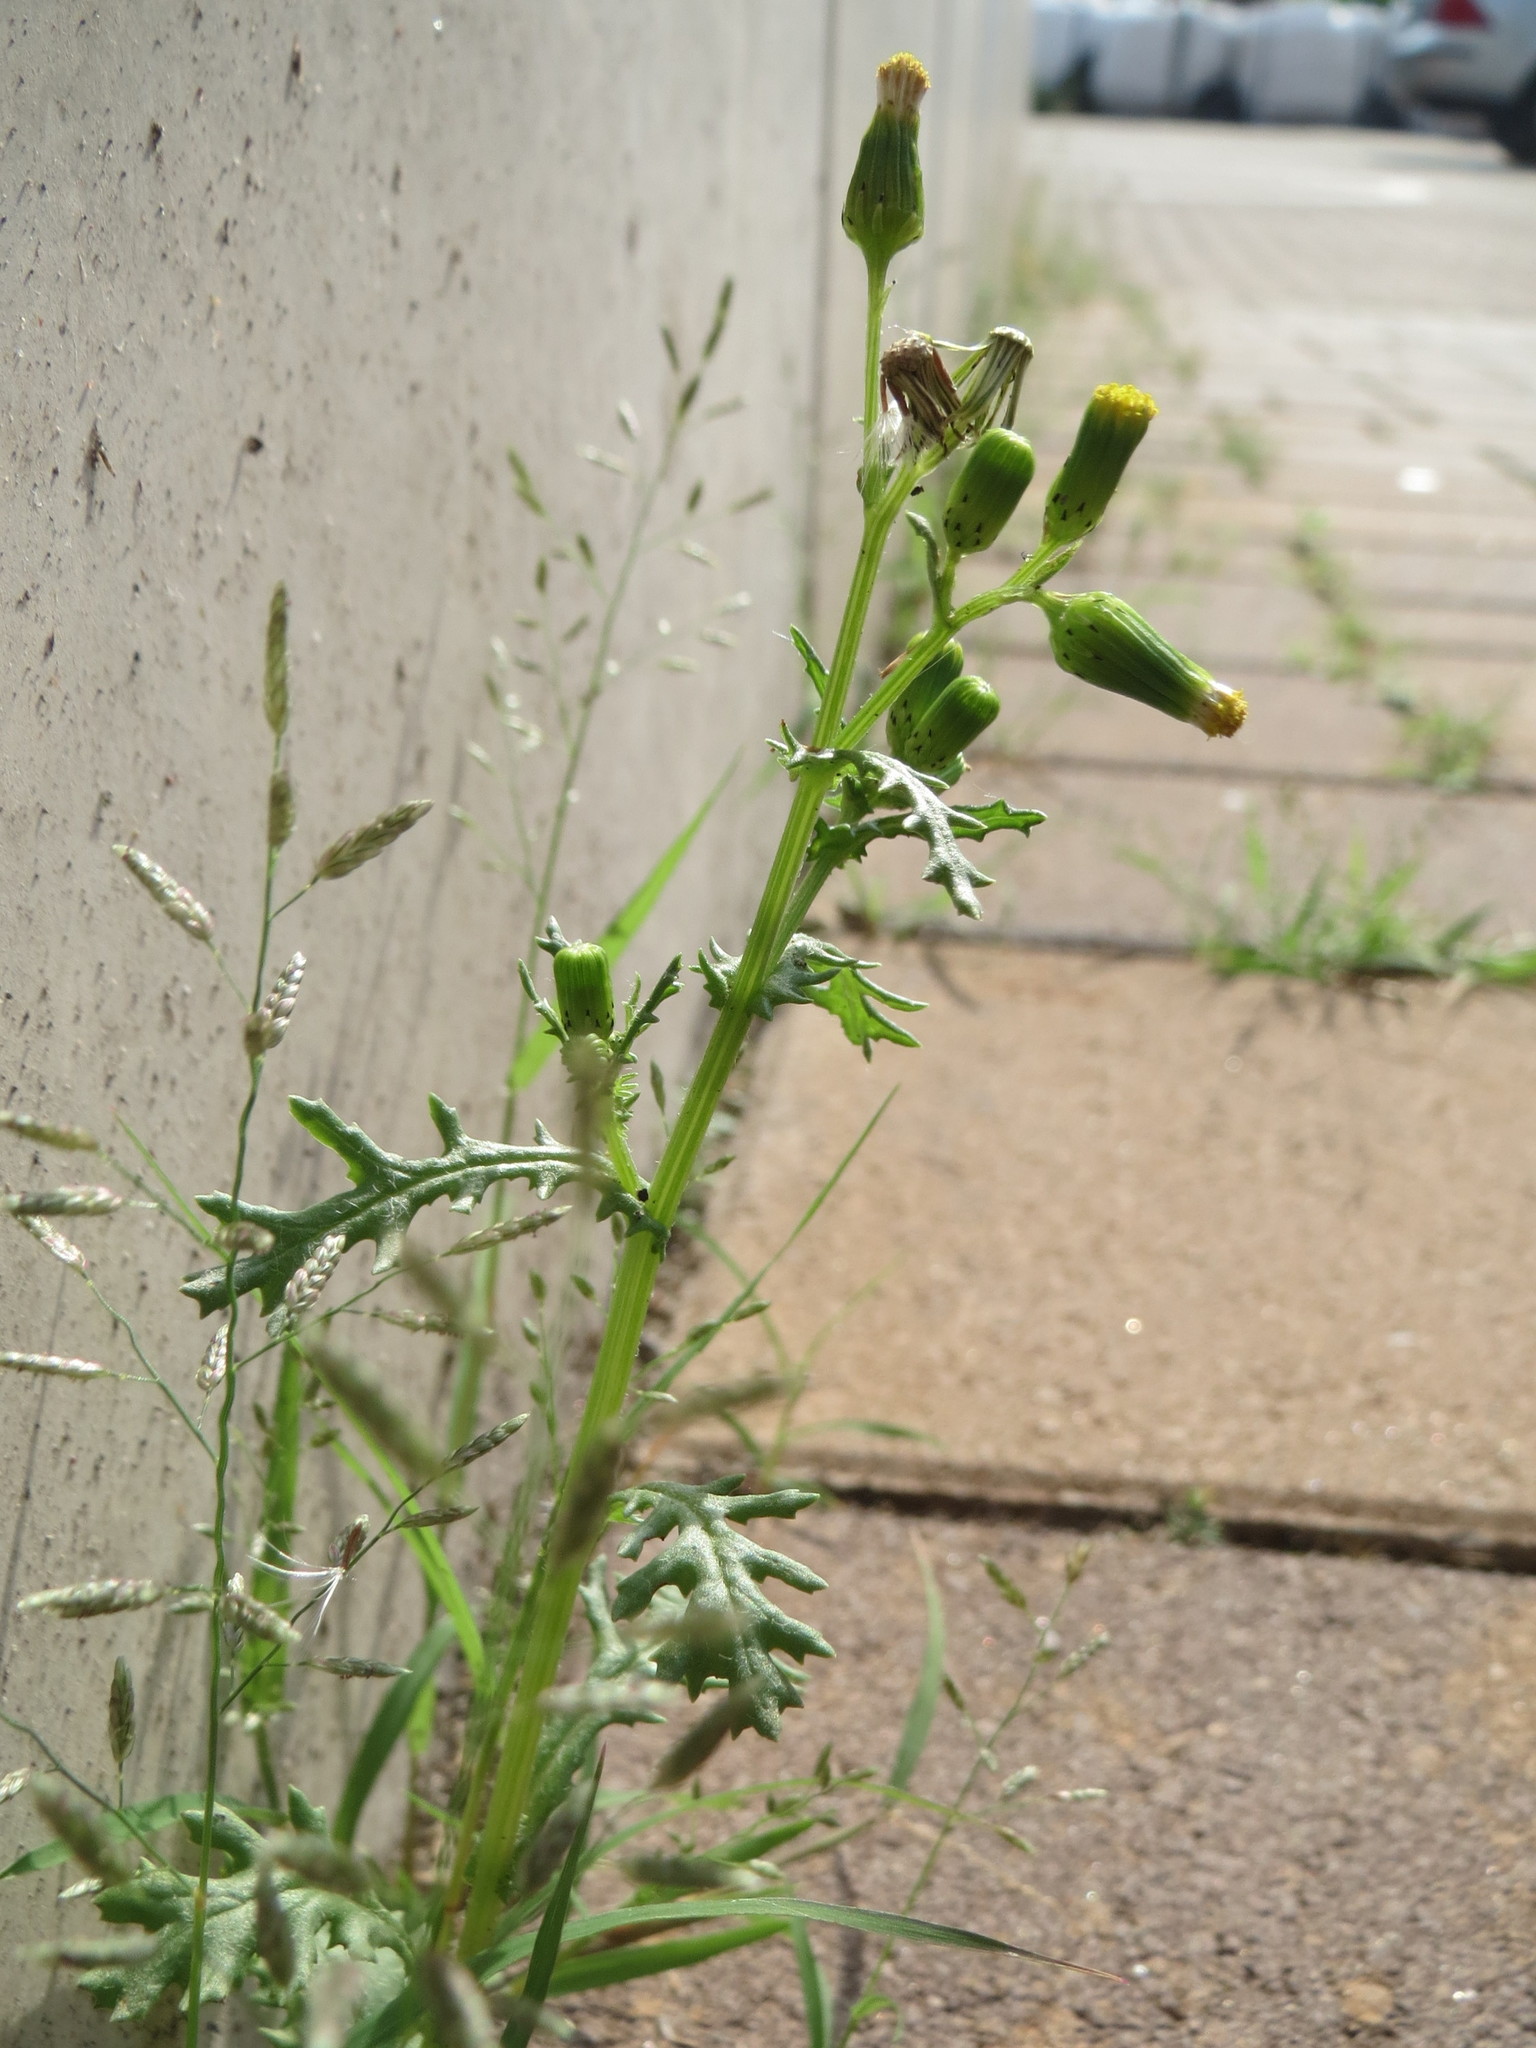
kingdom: Plantae
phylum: Tracheophyta
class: Magnoliopsida
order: Asterales
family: Asteraceae
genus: Senecio
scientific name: Senecio vulgaris
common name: Old-man-in-the-spring
